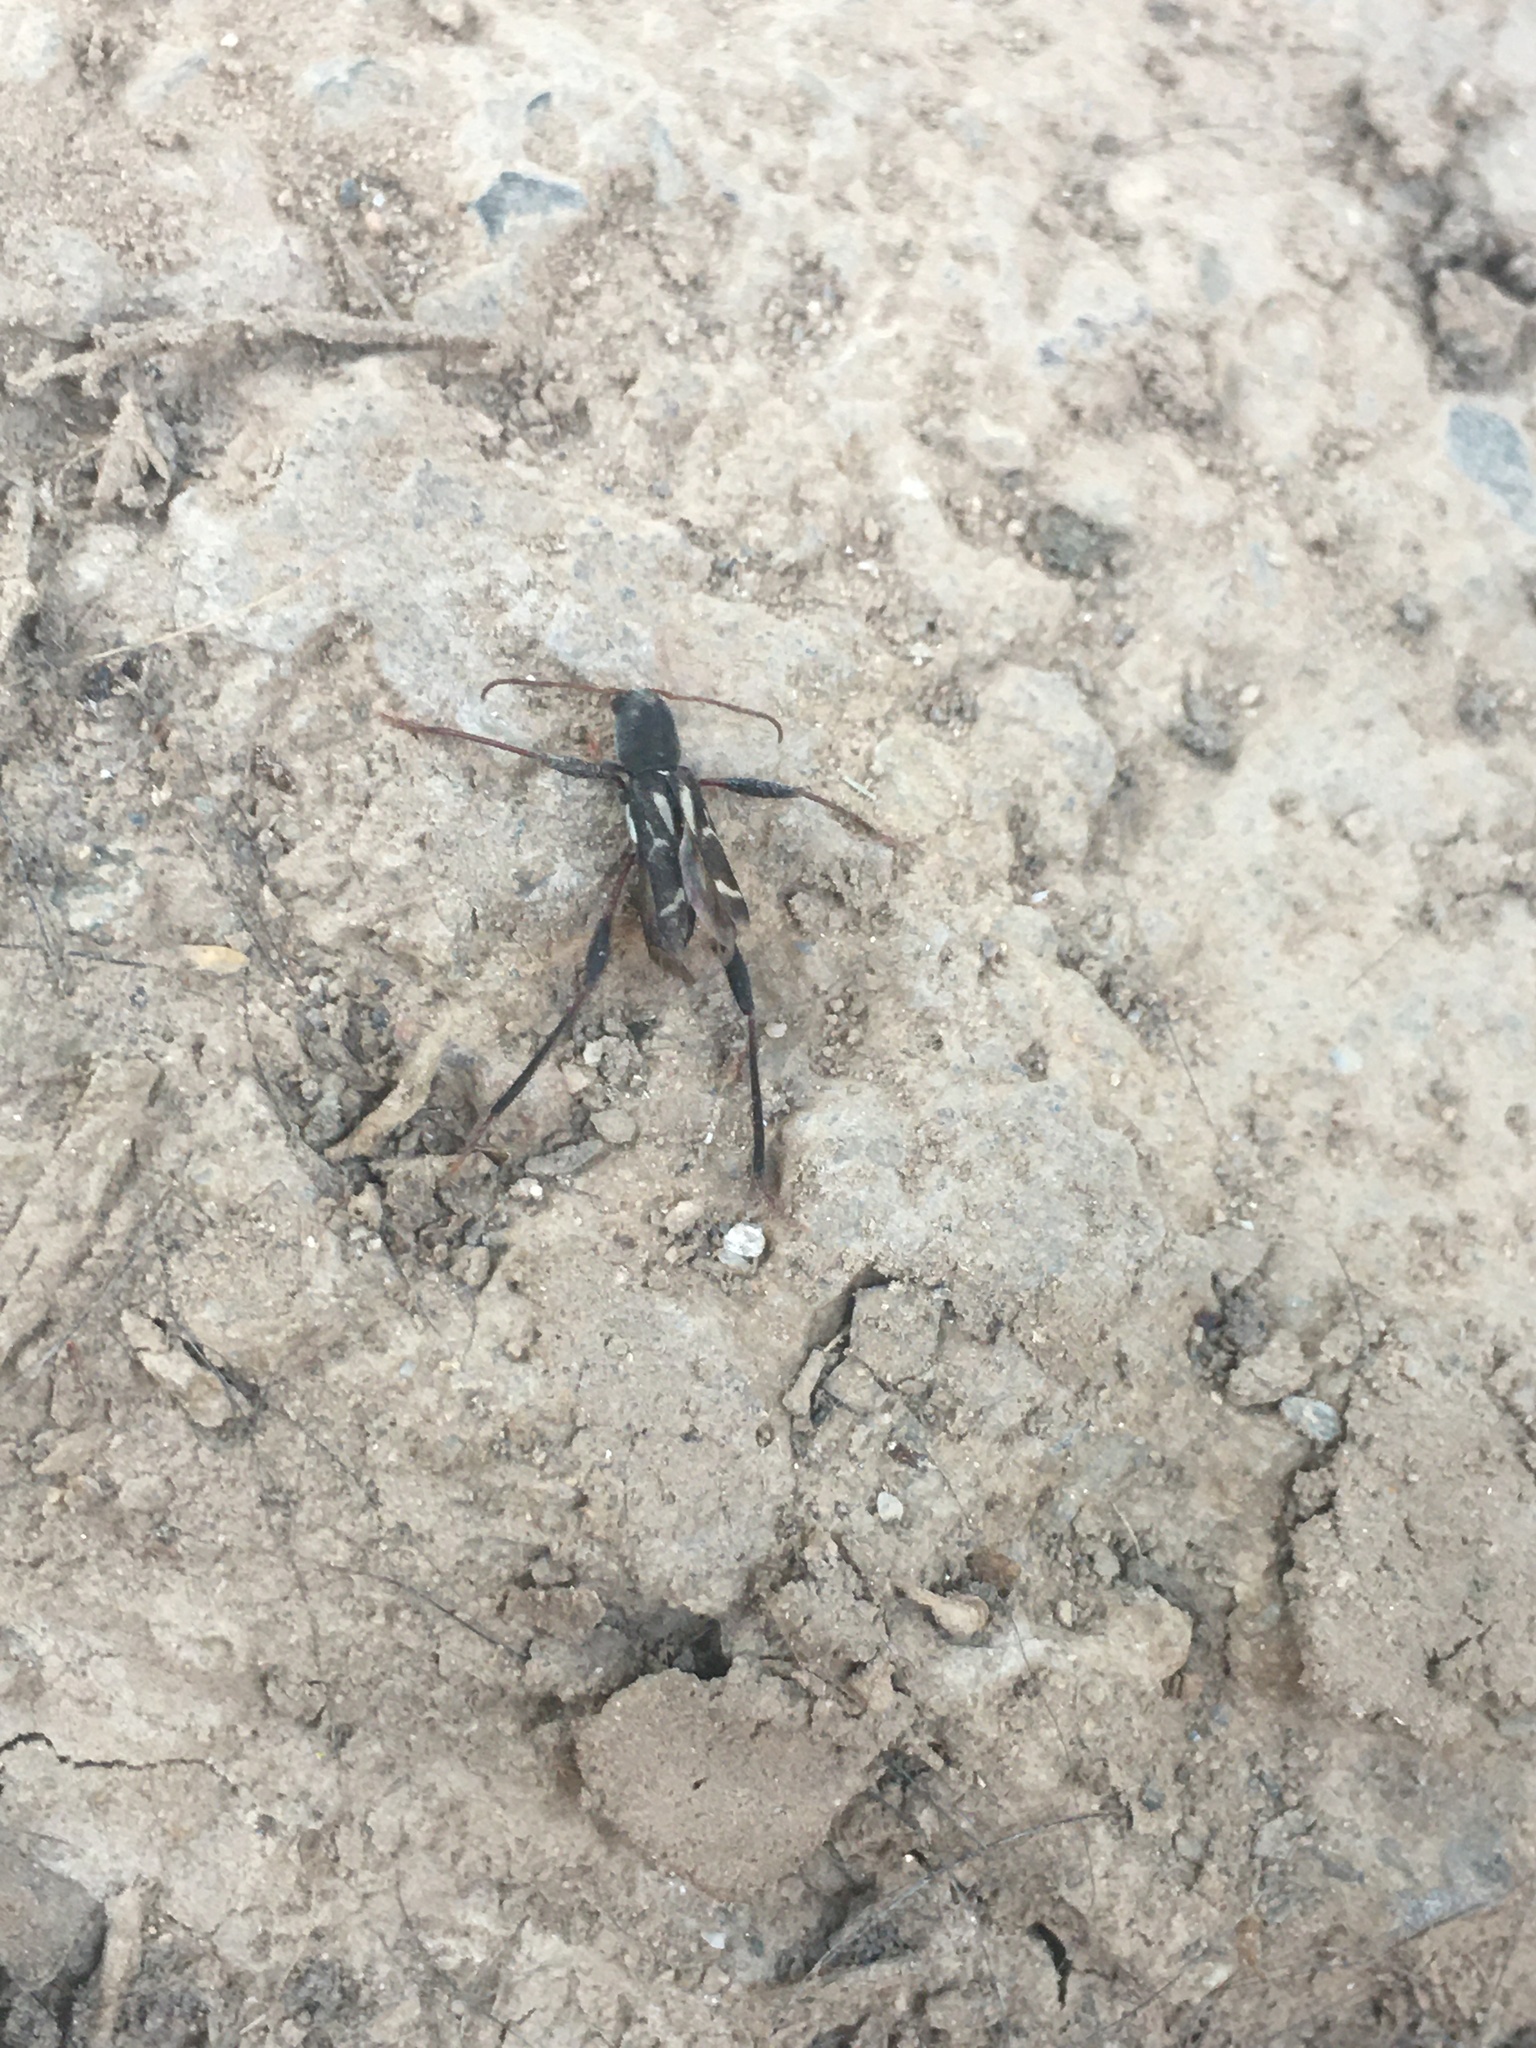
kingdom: Animalia
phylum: Arthropoda
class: Insecta
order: Coleoptera
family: Cerambycidae
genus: Neoclytus
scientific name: Neoclytus ypsilon
